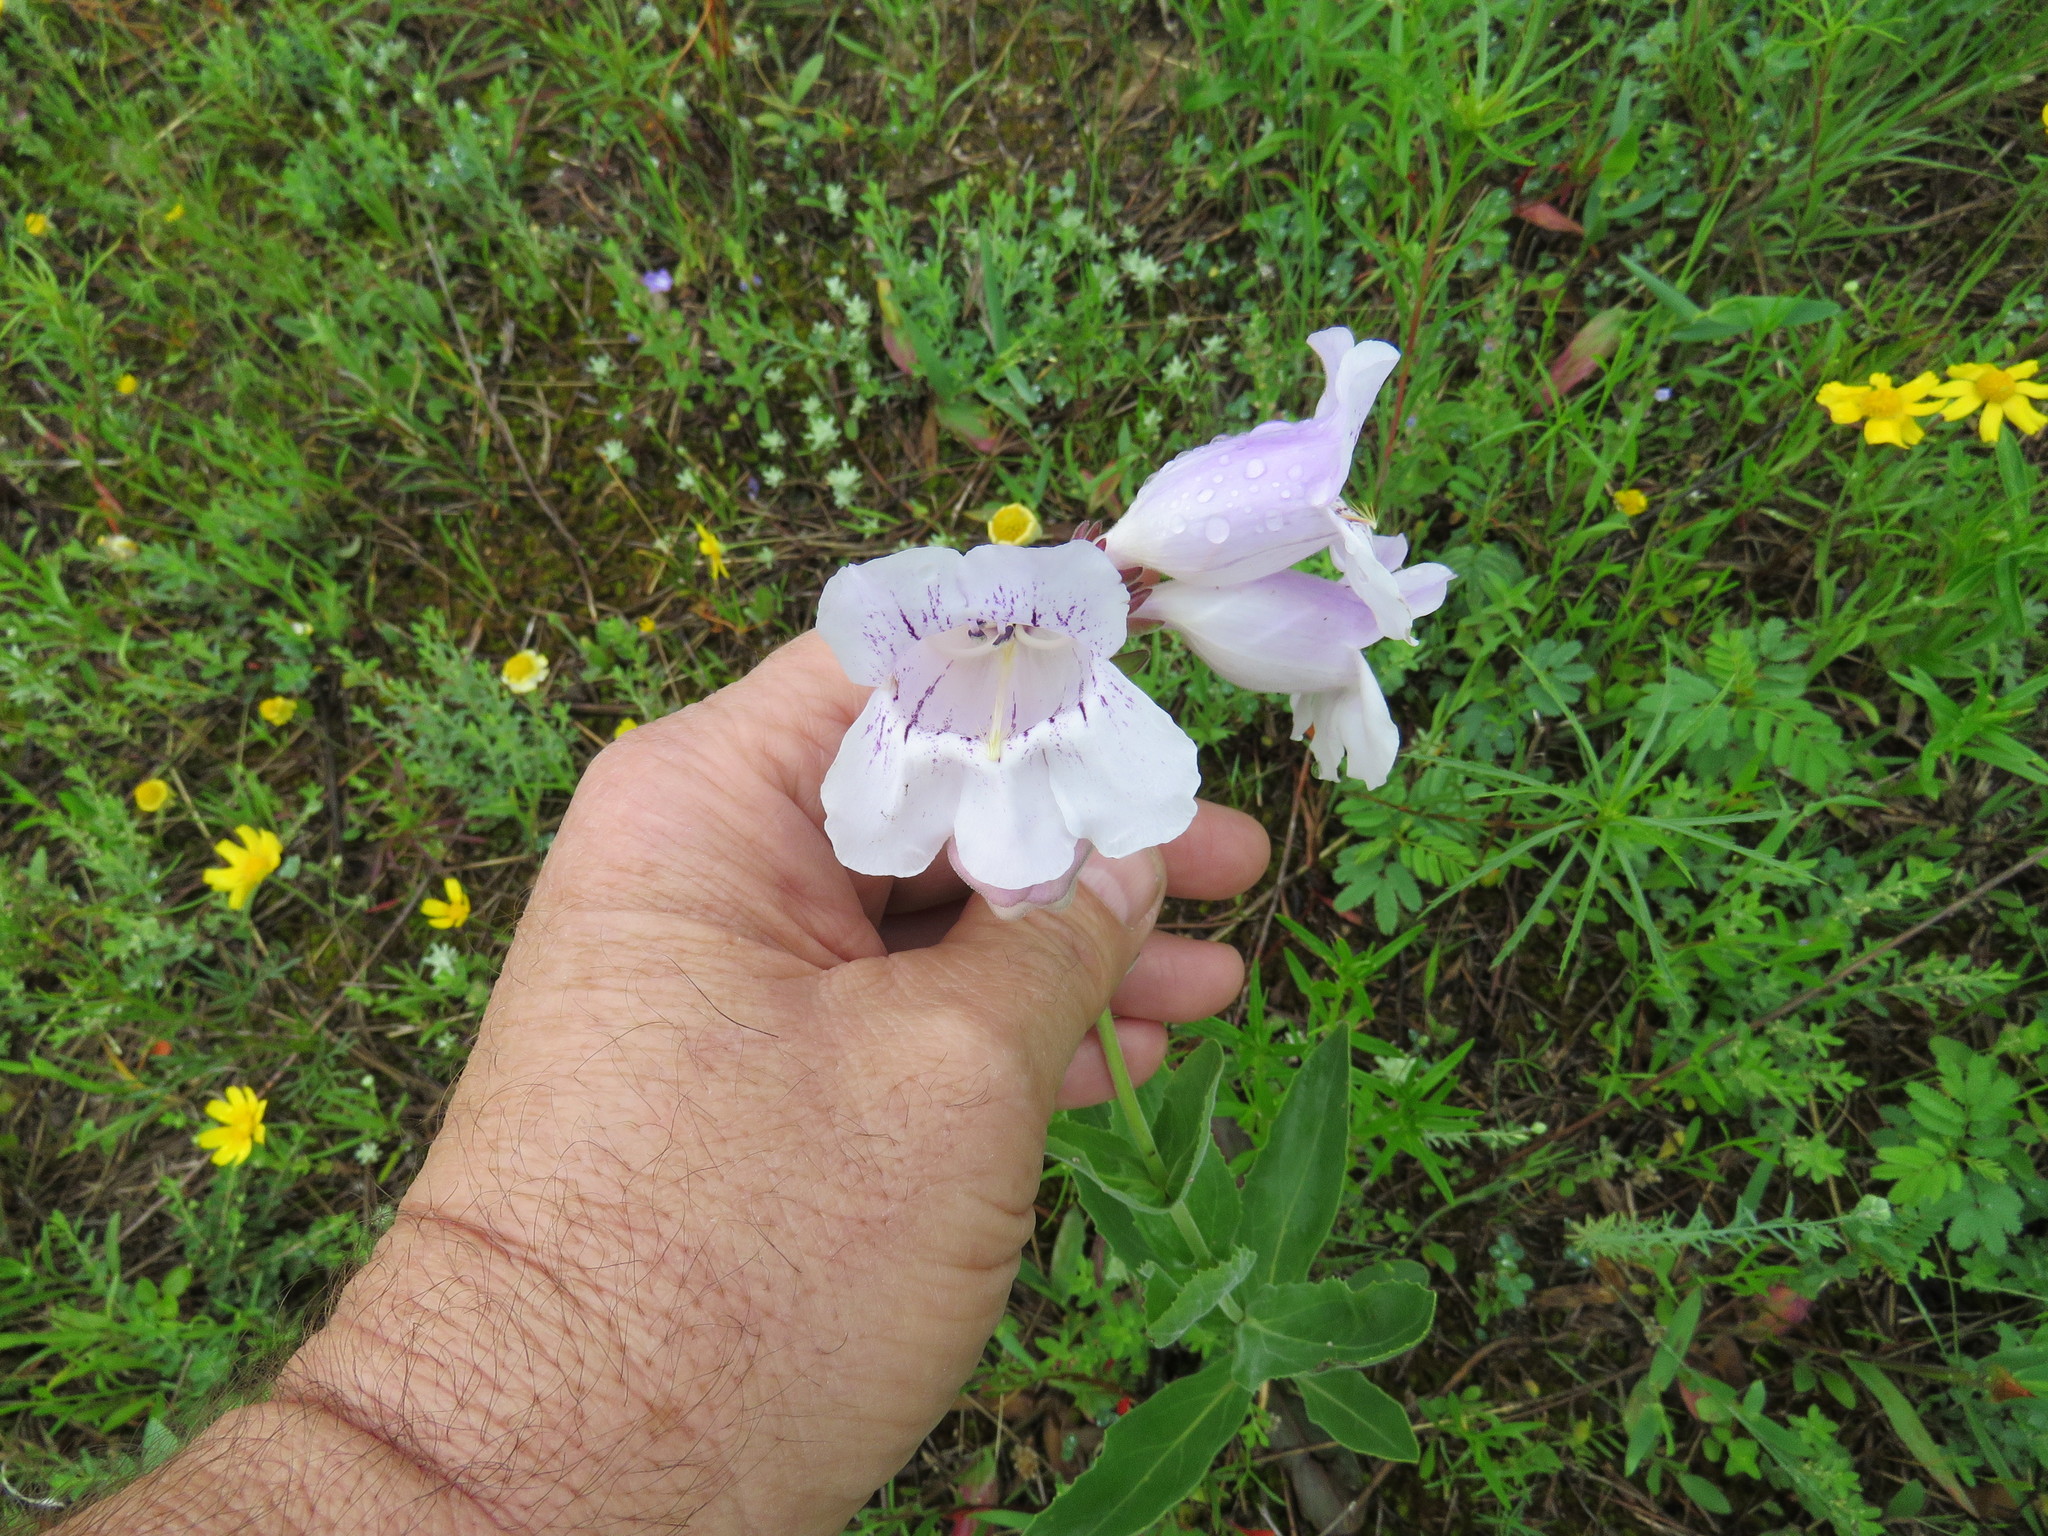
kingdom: Plantae
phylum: Tracheophyta
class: Magnoliopsida
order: Lamiales
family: Plantaginaceae
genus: Penstemon
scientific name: Penstemon cobaea
